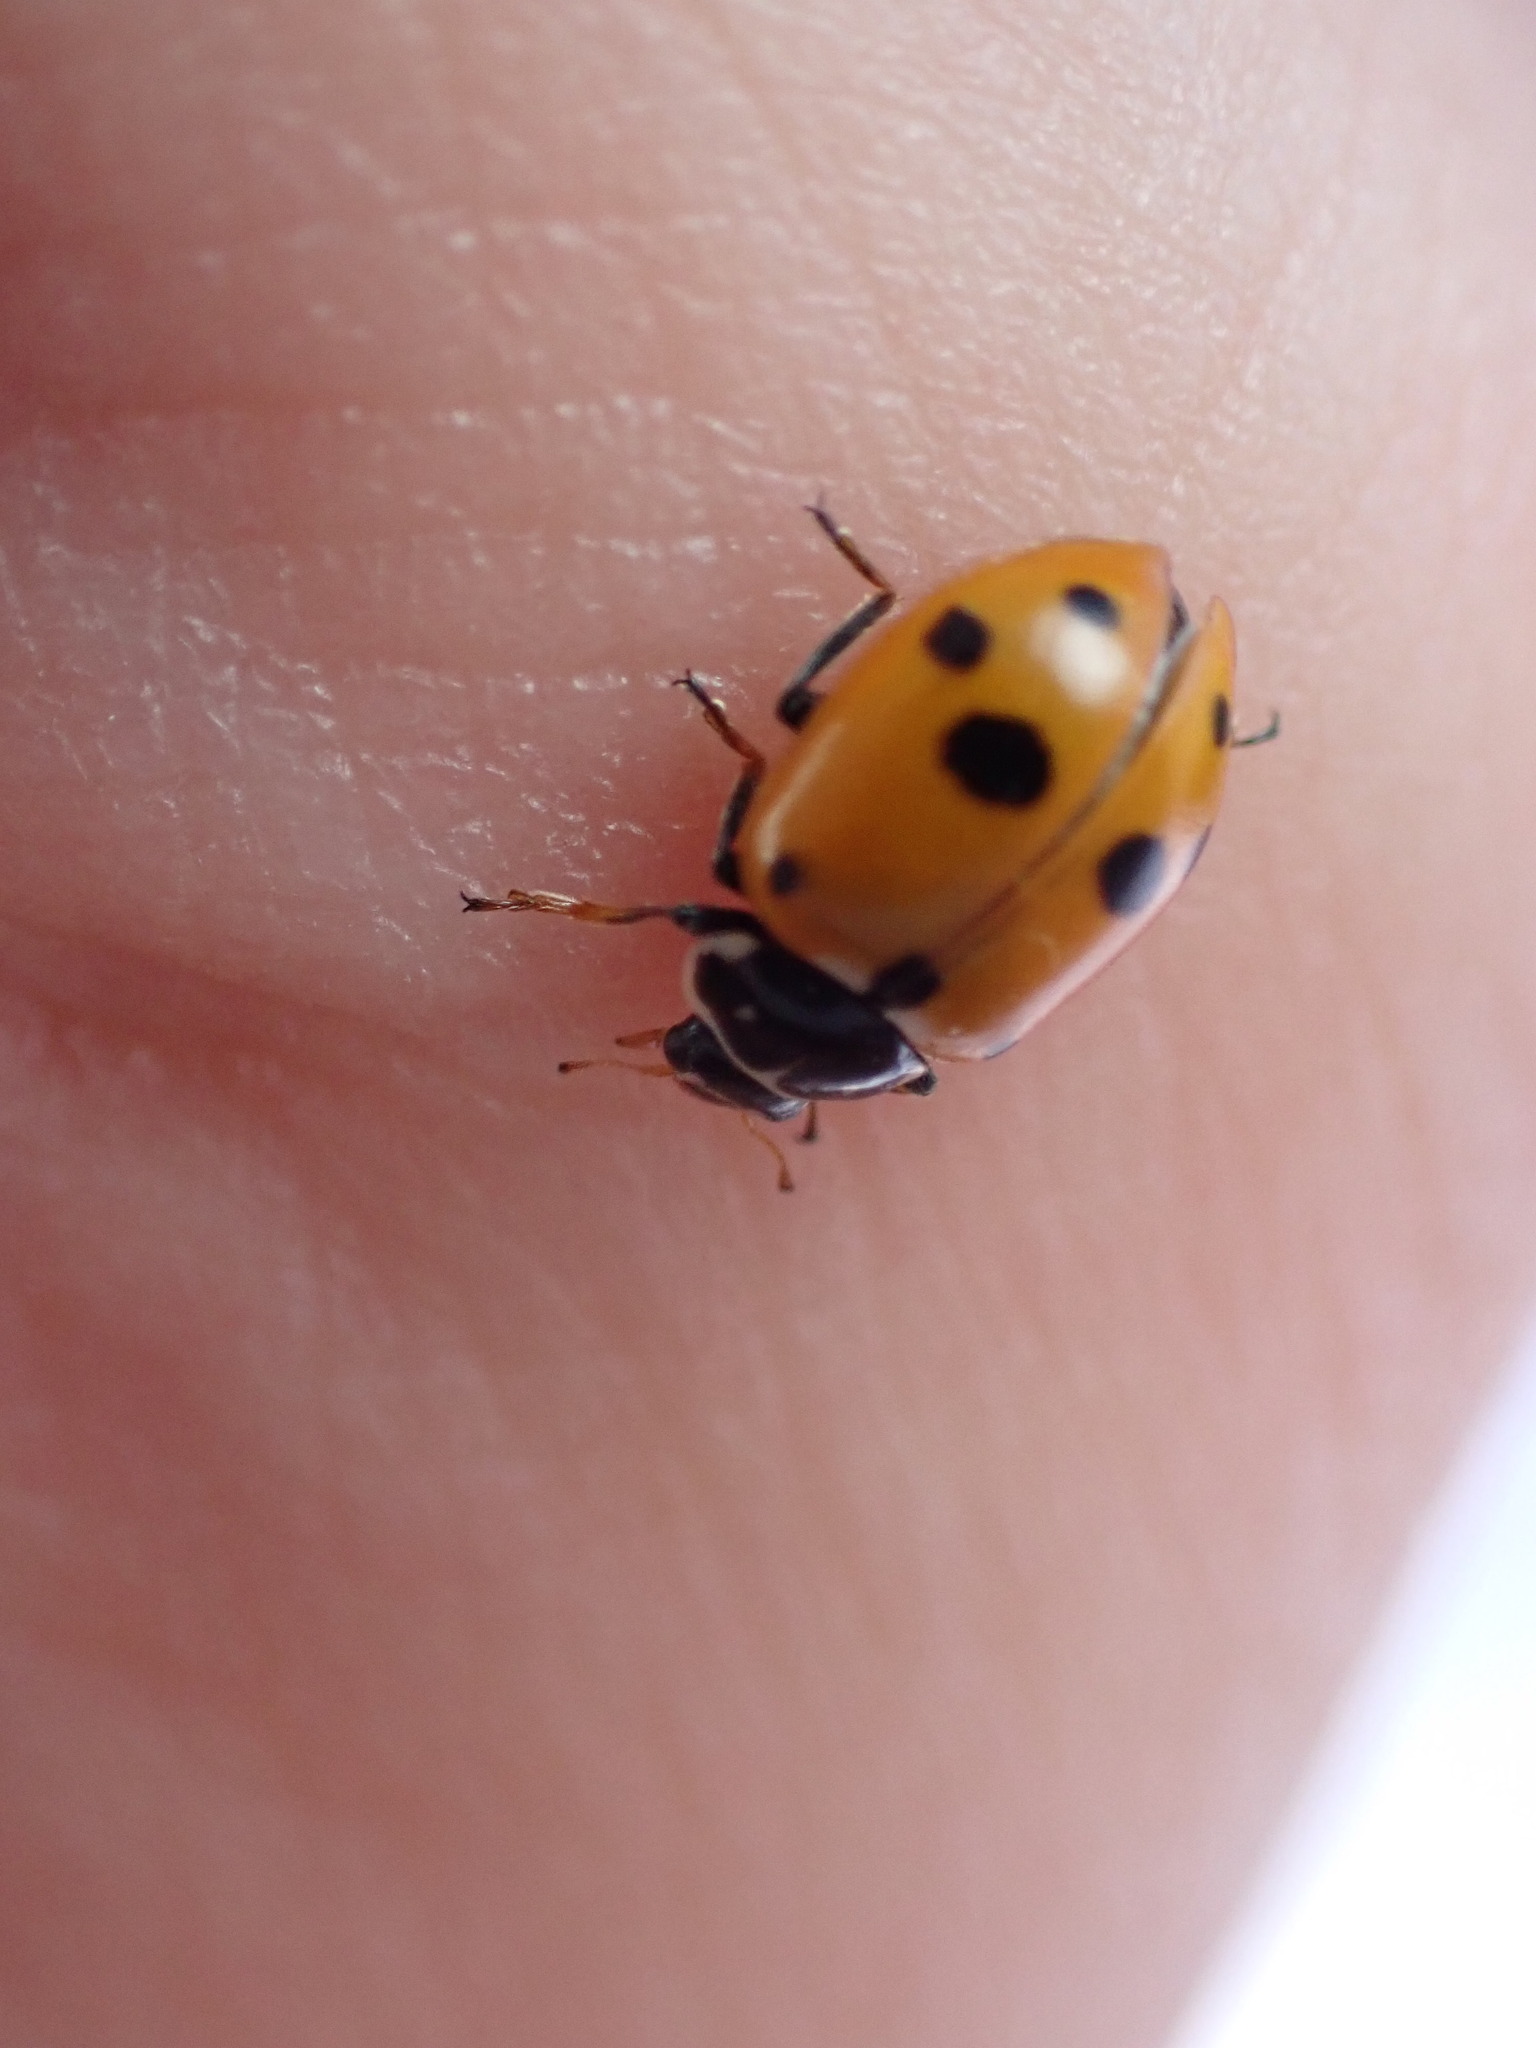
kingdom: Animalia
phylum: Arthropoda
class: Insecta
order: Coleoptera
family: Coccinellidae
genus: Hippodamia
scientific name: Hippodamia variegata
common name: Ladybird beetle
